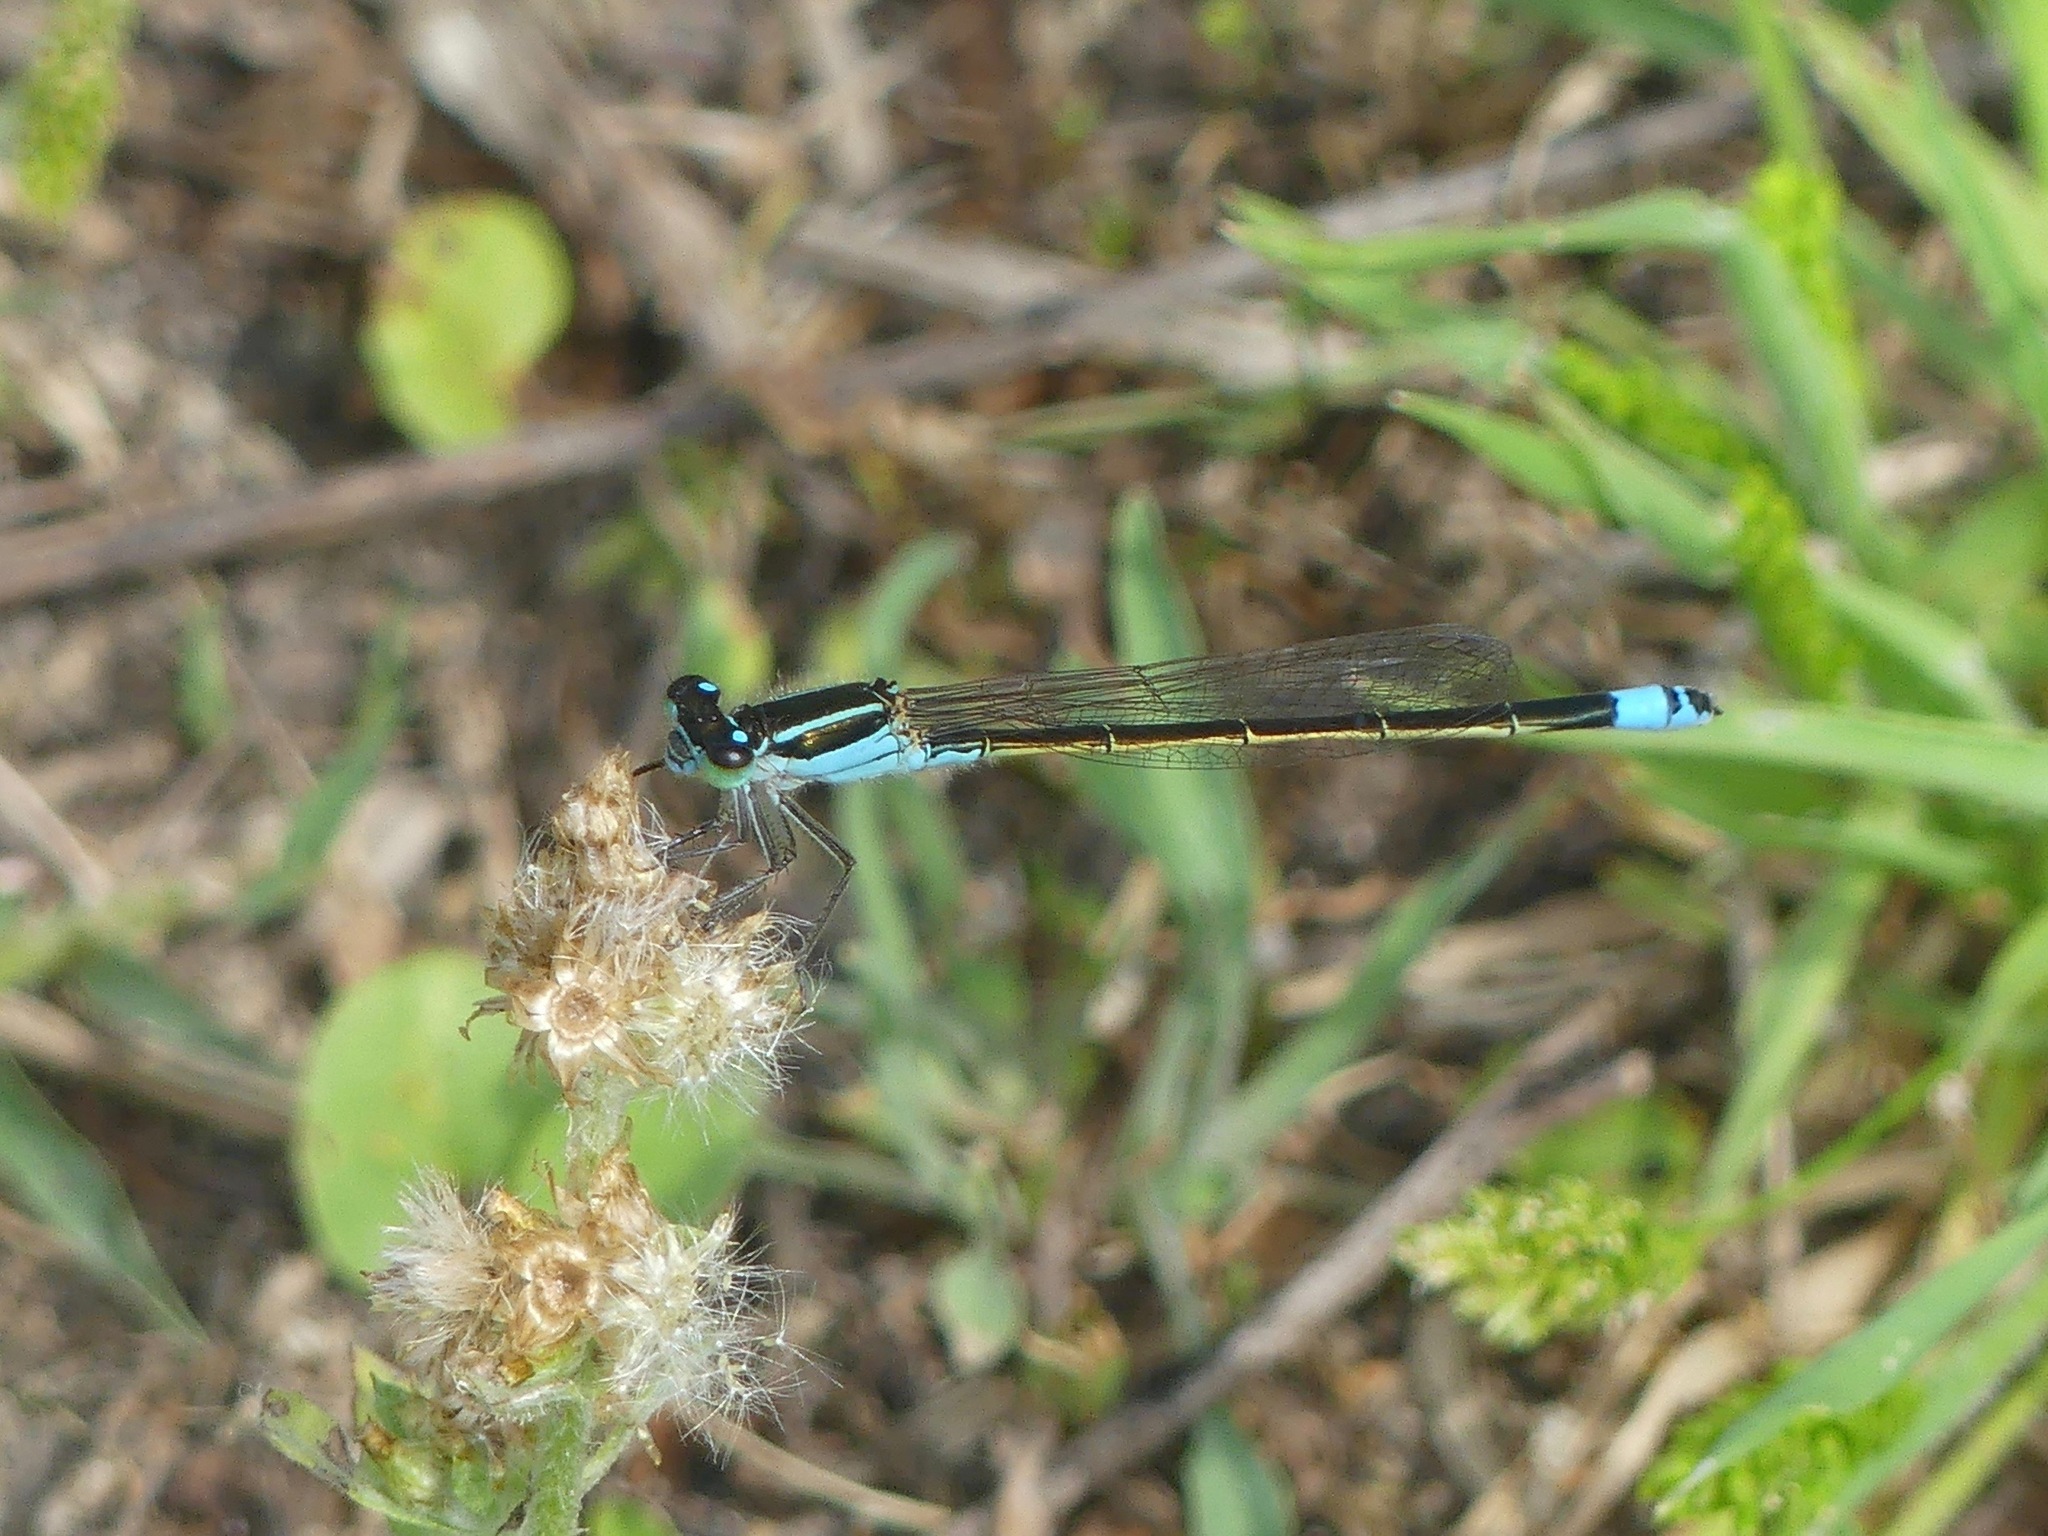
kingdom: Animalia
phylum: Arthropoda
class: Insecta
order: Odonata
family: Coenagrionidae
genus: Ischnura
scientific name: Ischnura ramburii
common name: Rambur's forktail
